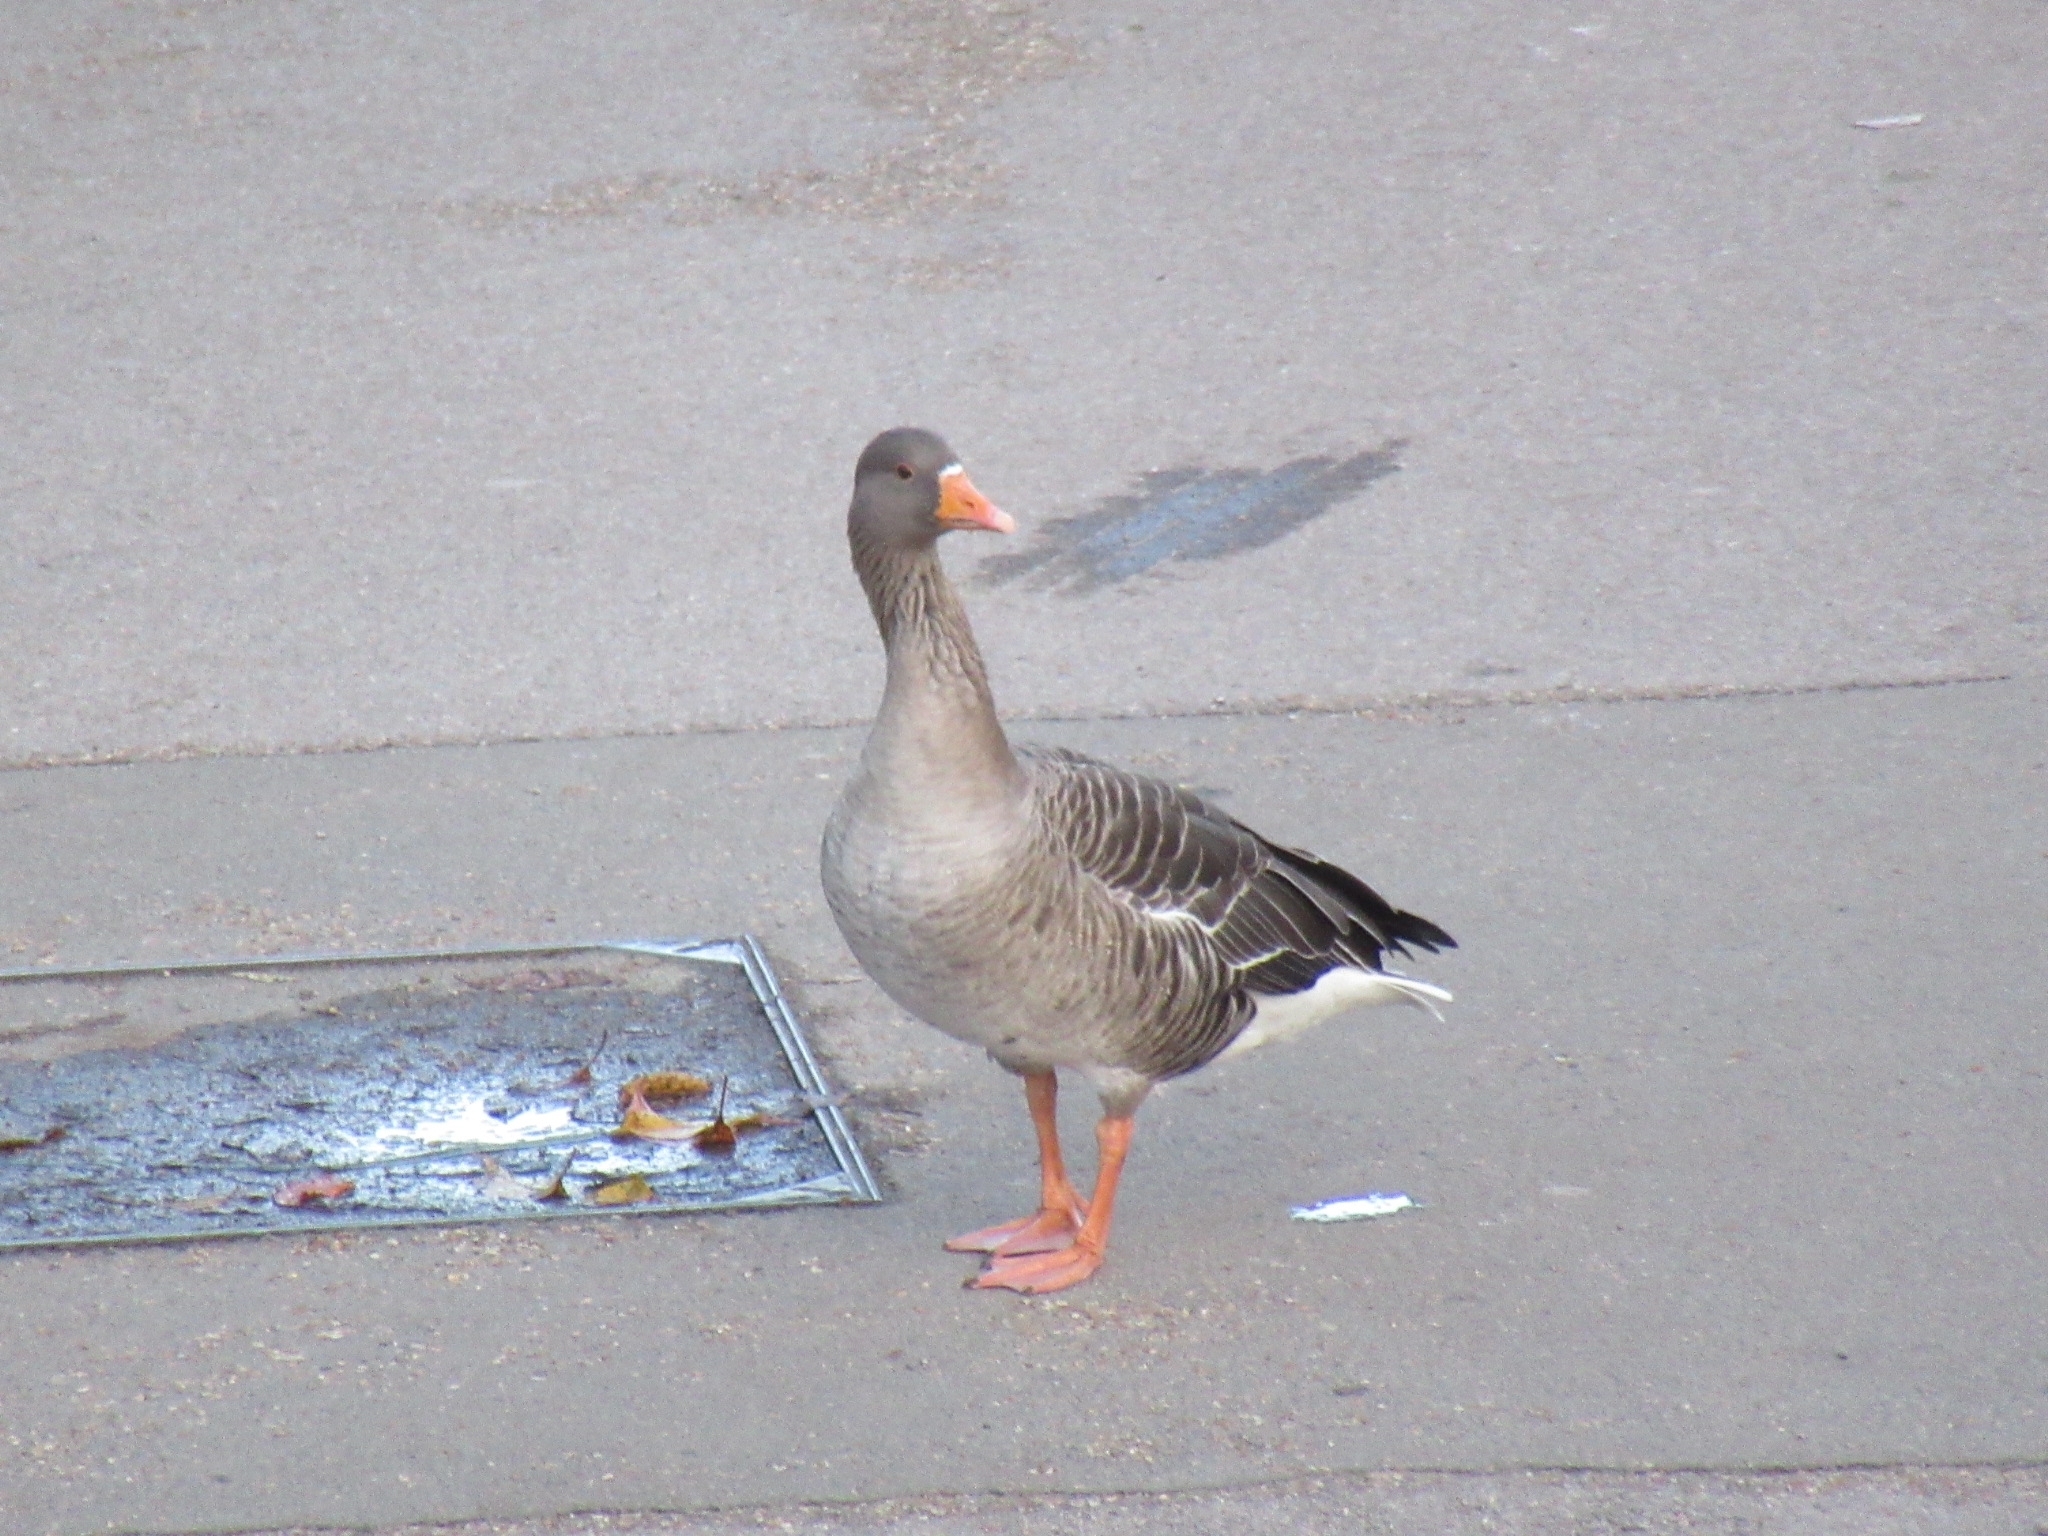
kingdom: Animalia
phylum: Chordata
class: Aves
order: Anseriformes
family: Anatidae
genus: Anser
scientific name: Anser anser
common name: Greylag goose
